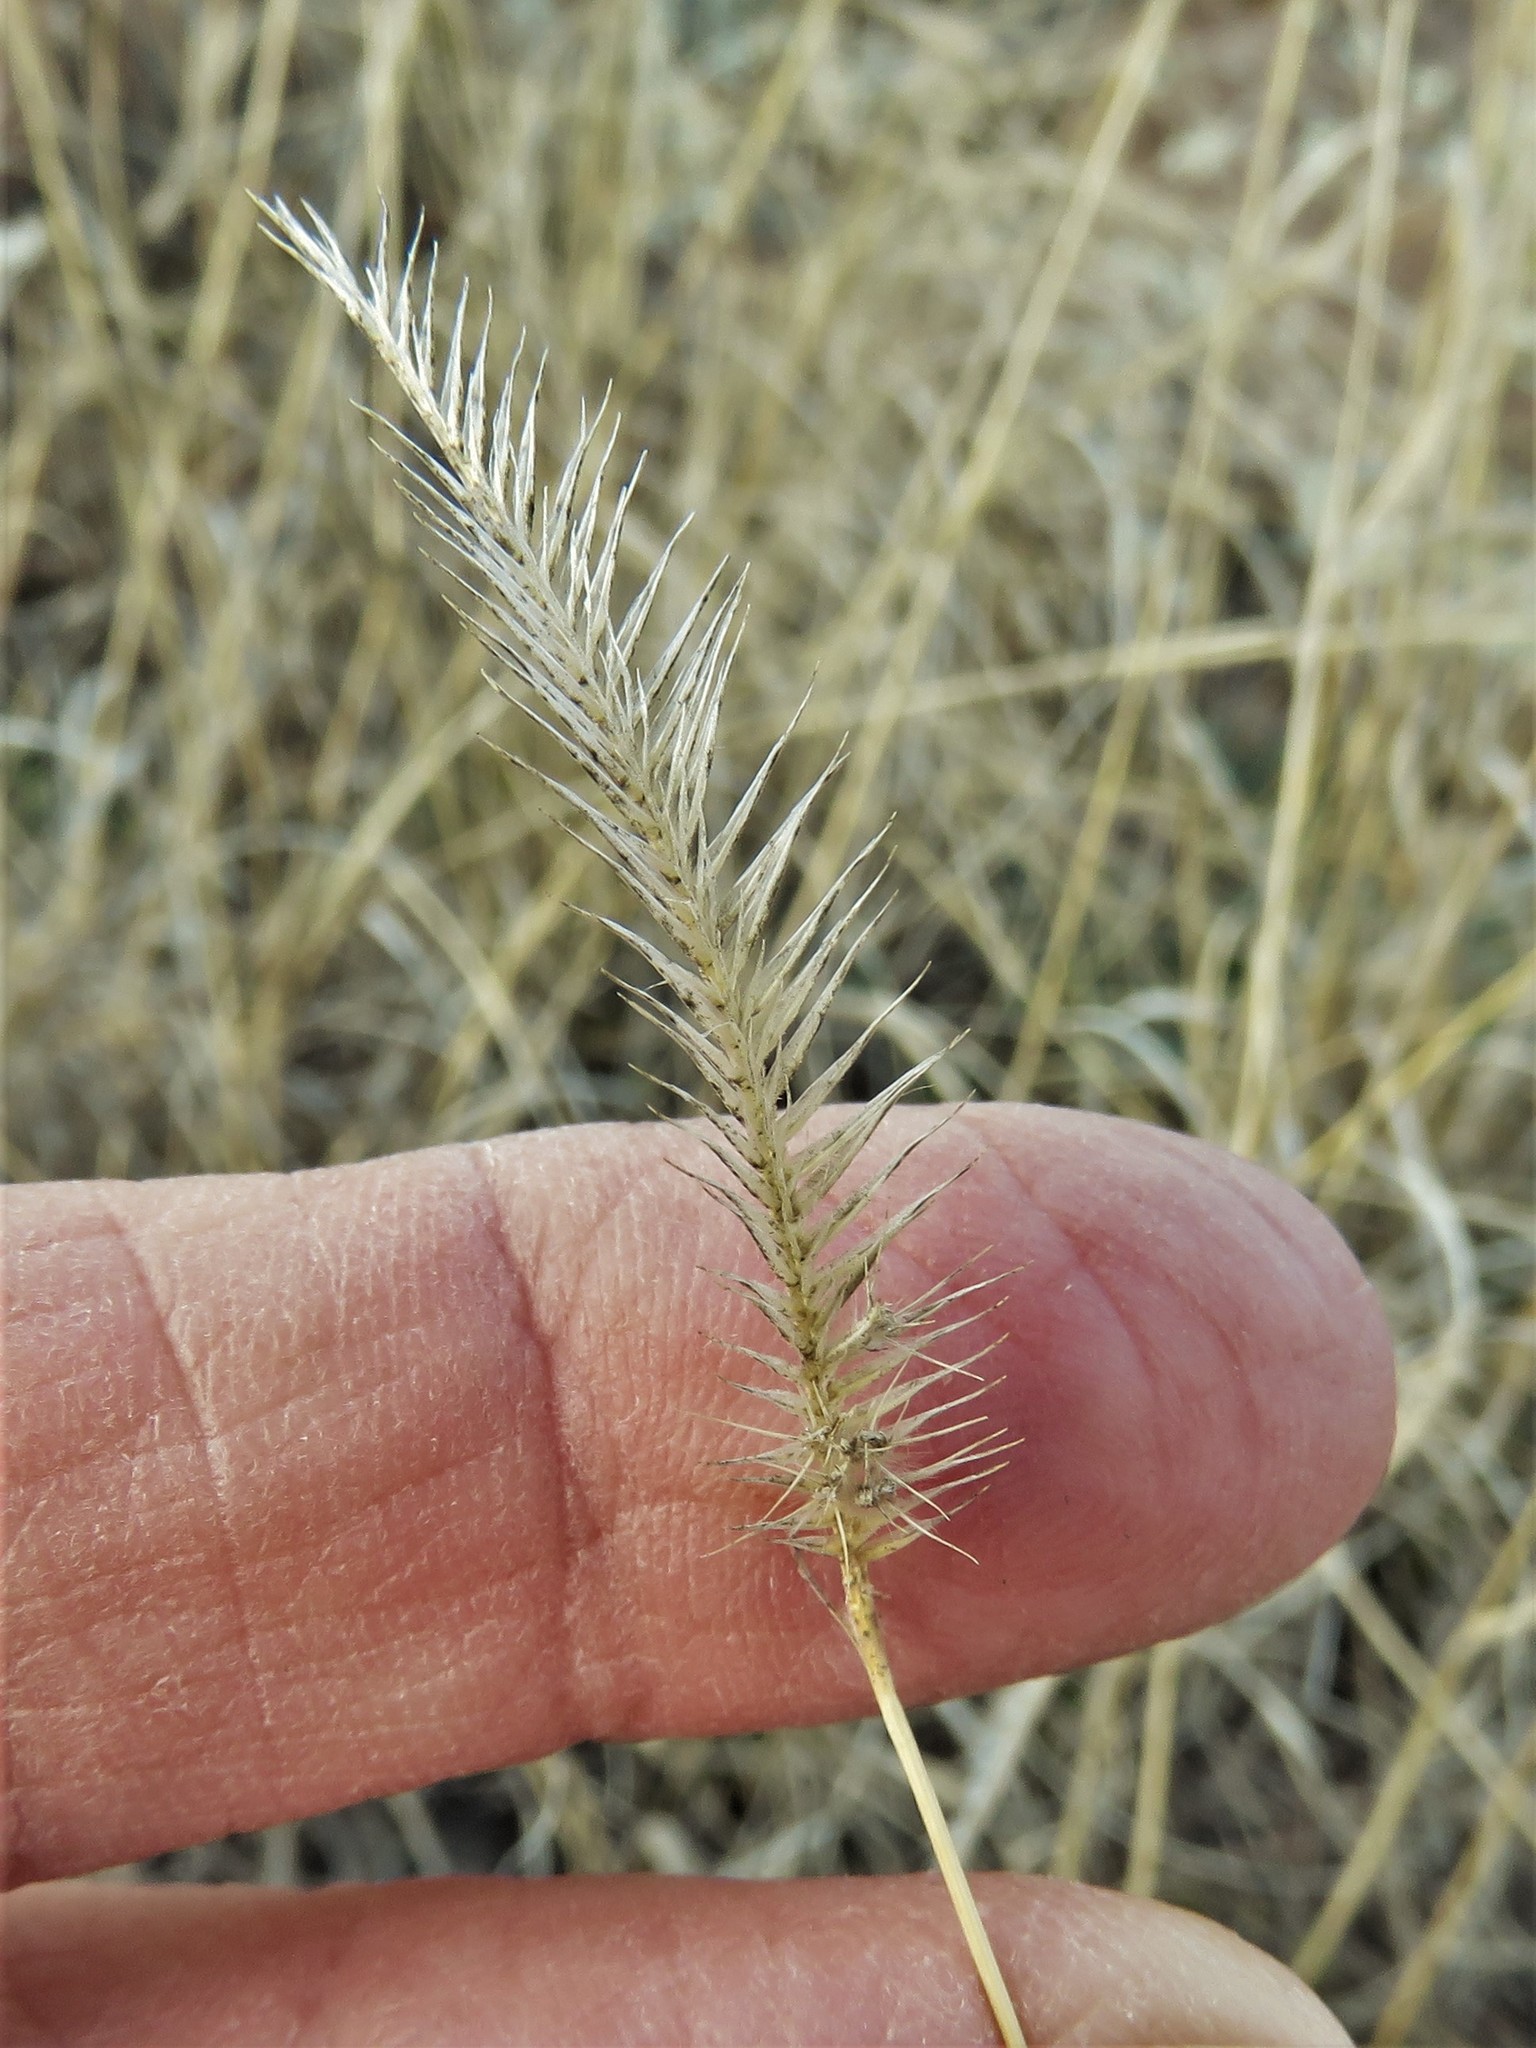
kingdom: Plantae
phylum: Tracheophyta
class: Liliopsida
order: Poales
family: Poaceae
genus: Bouteloua
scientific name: Bouteloua gracilis
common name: Blue grama
